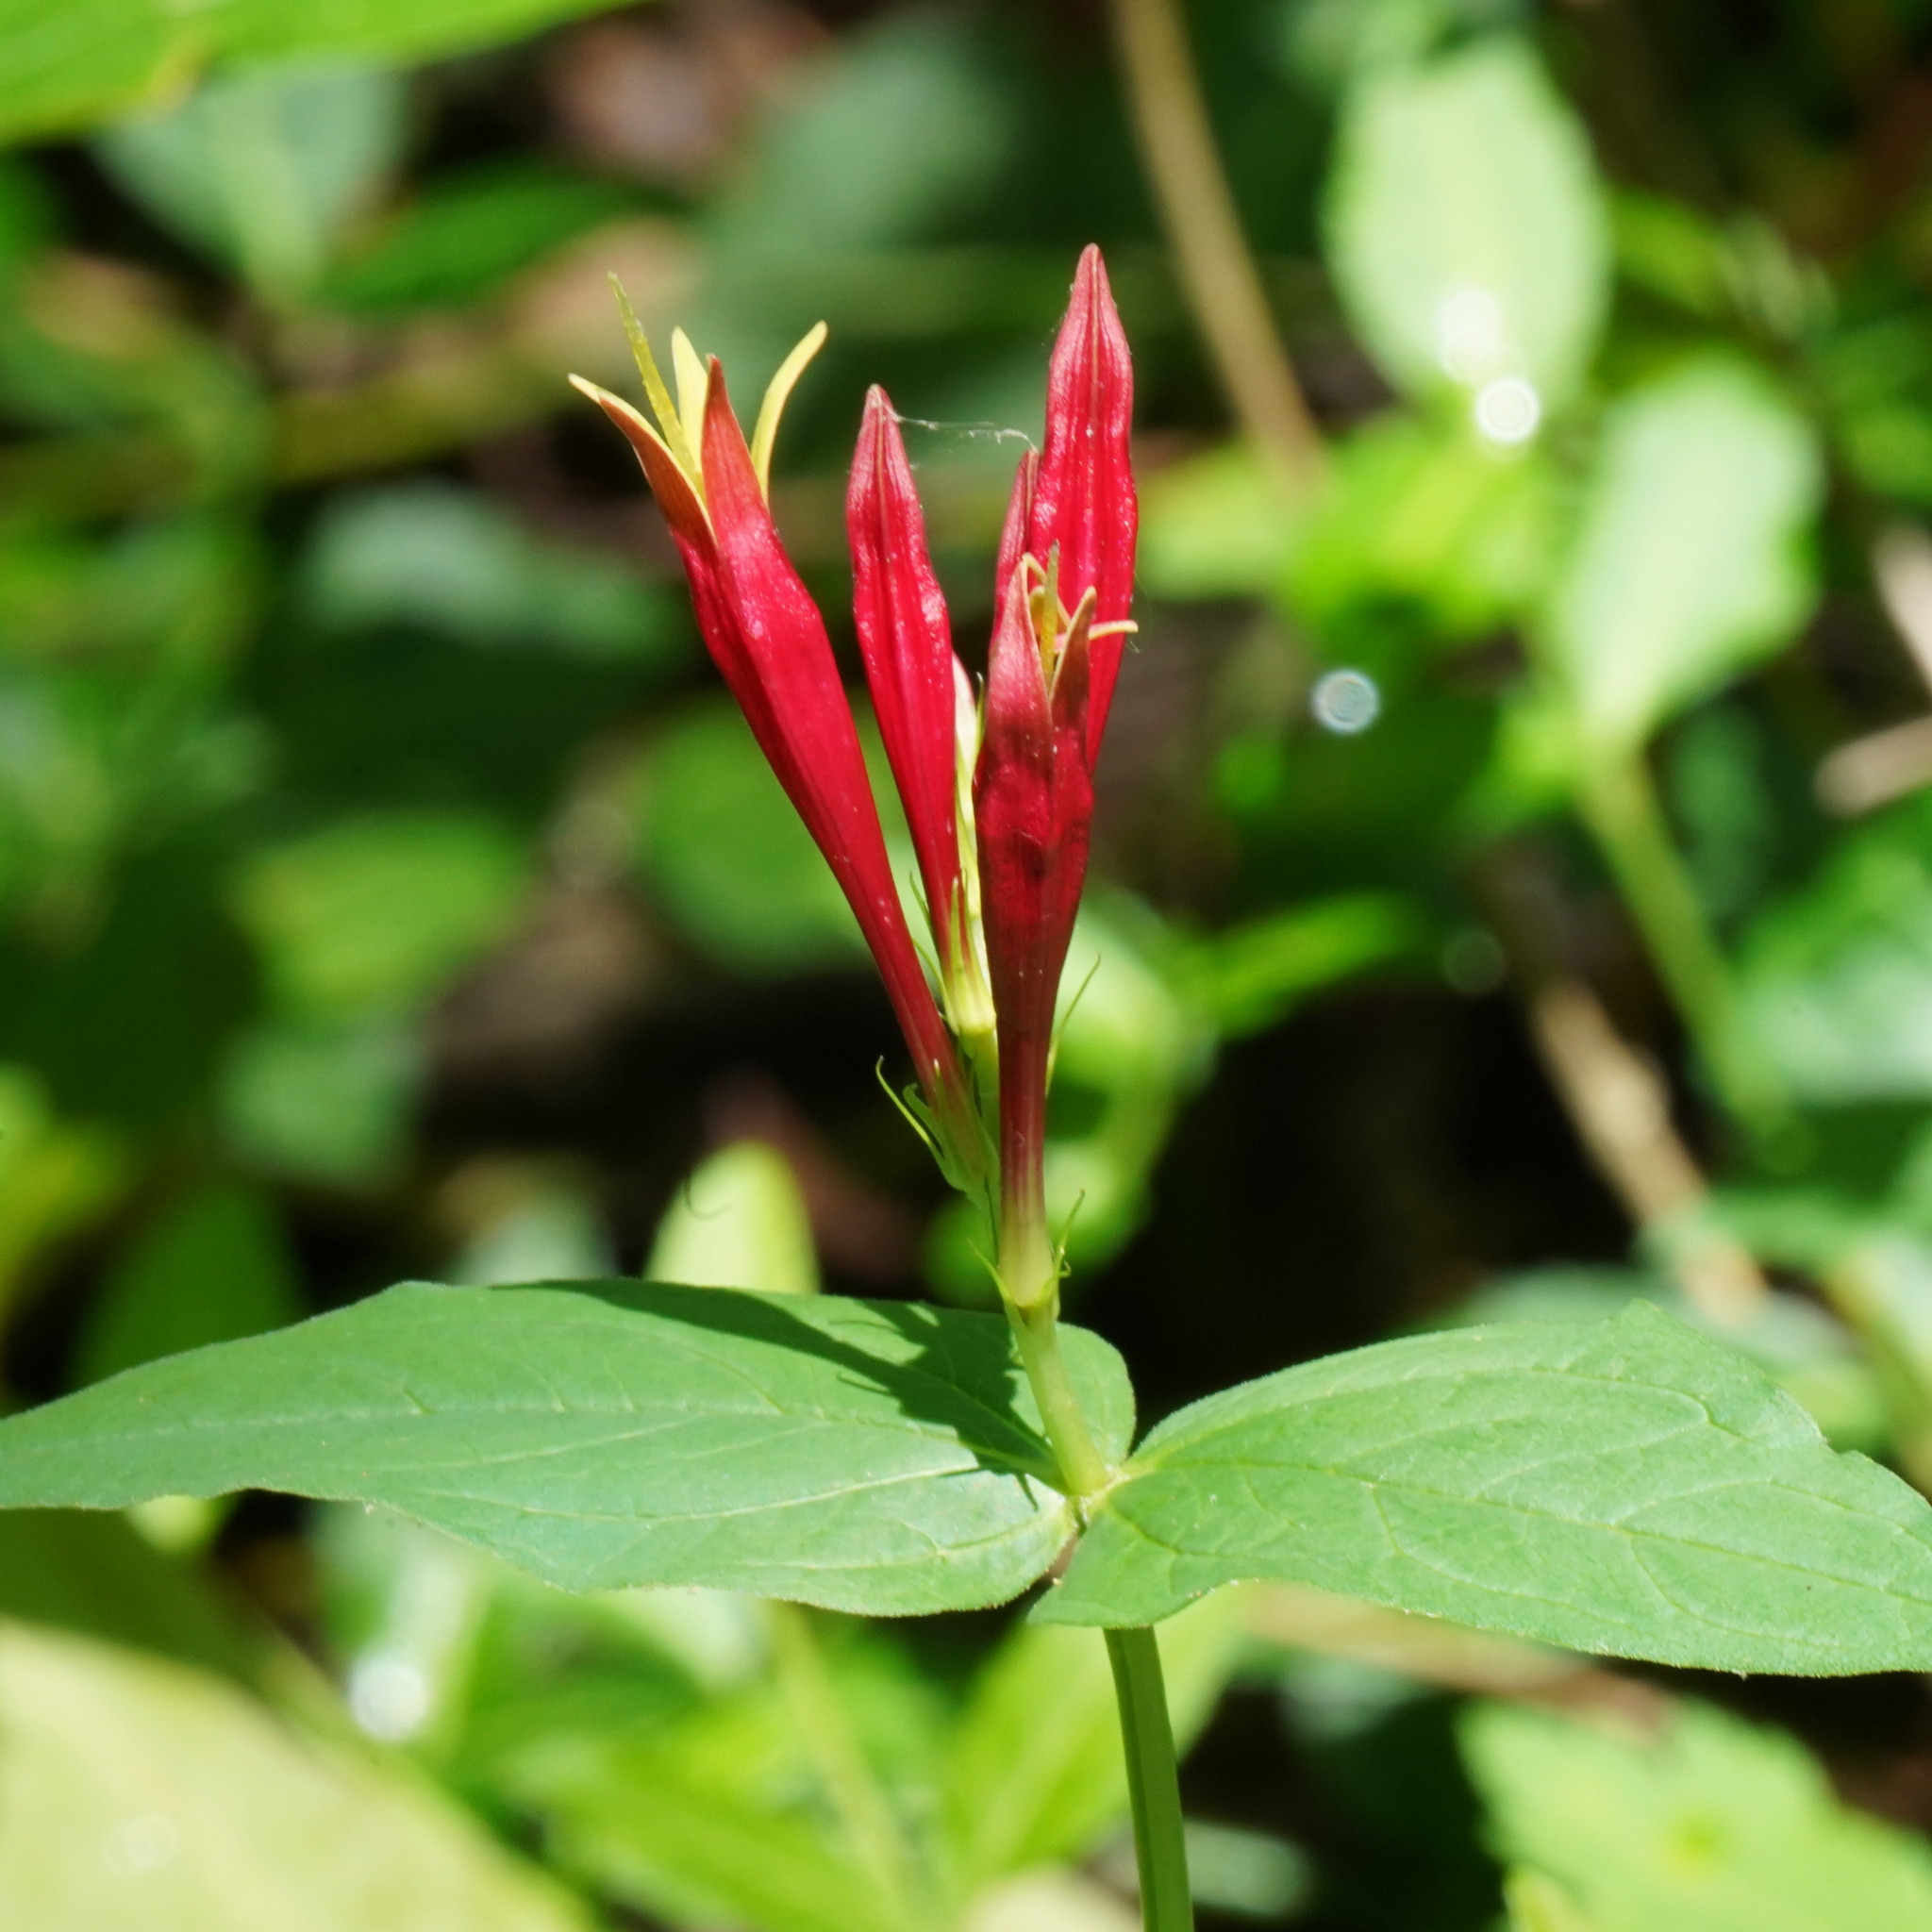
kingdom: Plantae
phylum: Tracheophyta
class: Magnoliopsida
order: Gentianales
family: Loganiaceae
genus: Spigelia
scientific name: Spigelia marilandica
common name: Indian-pink
